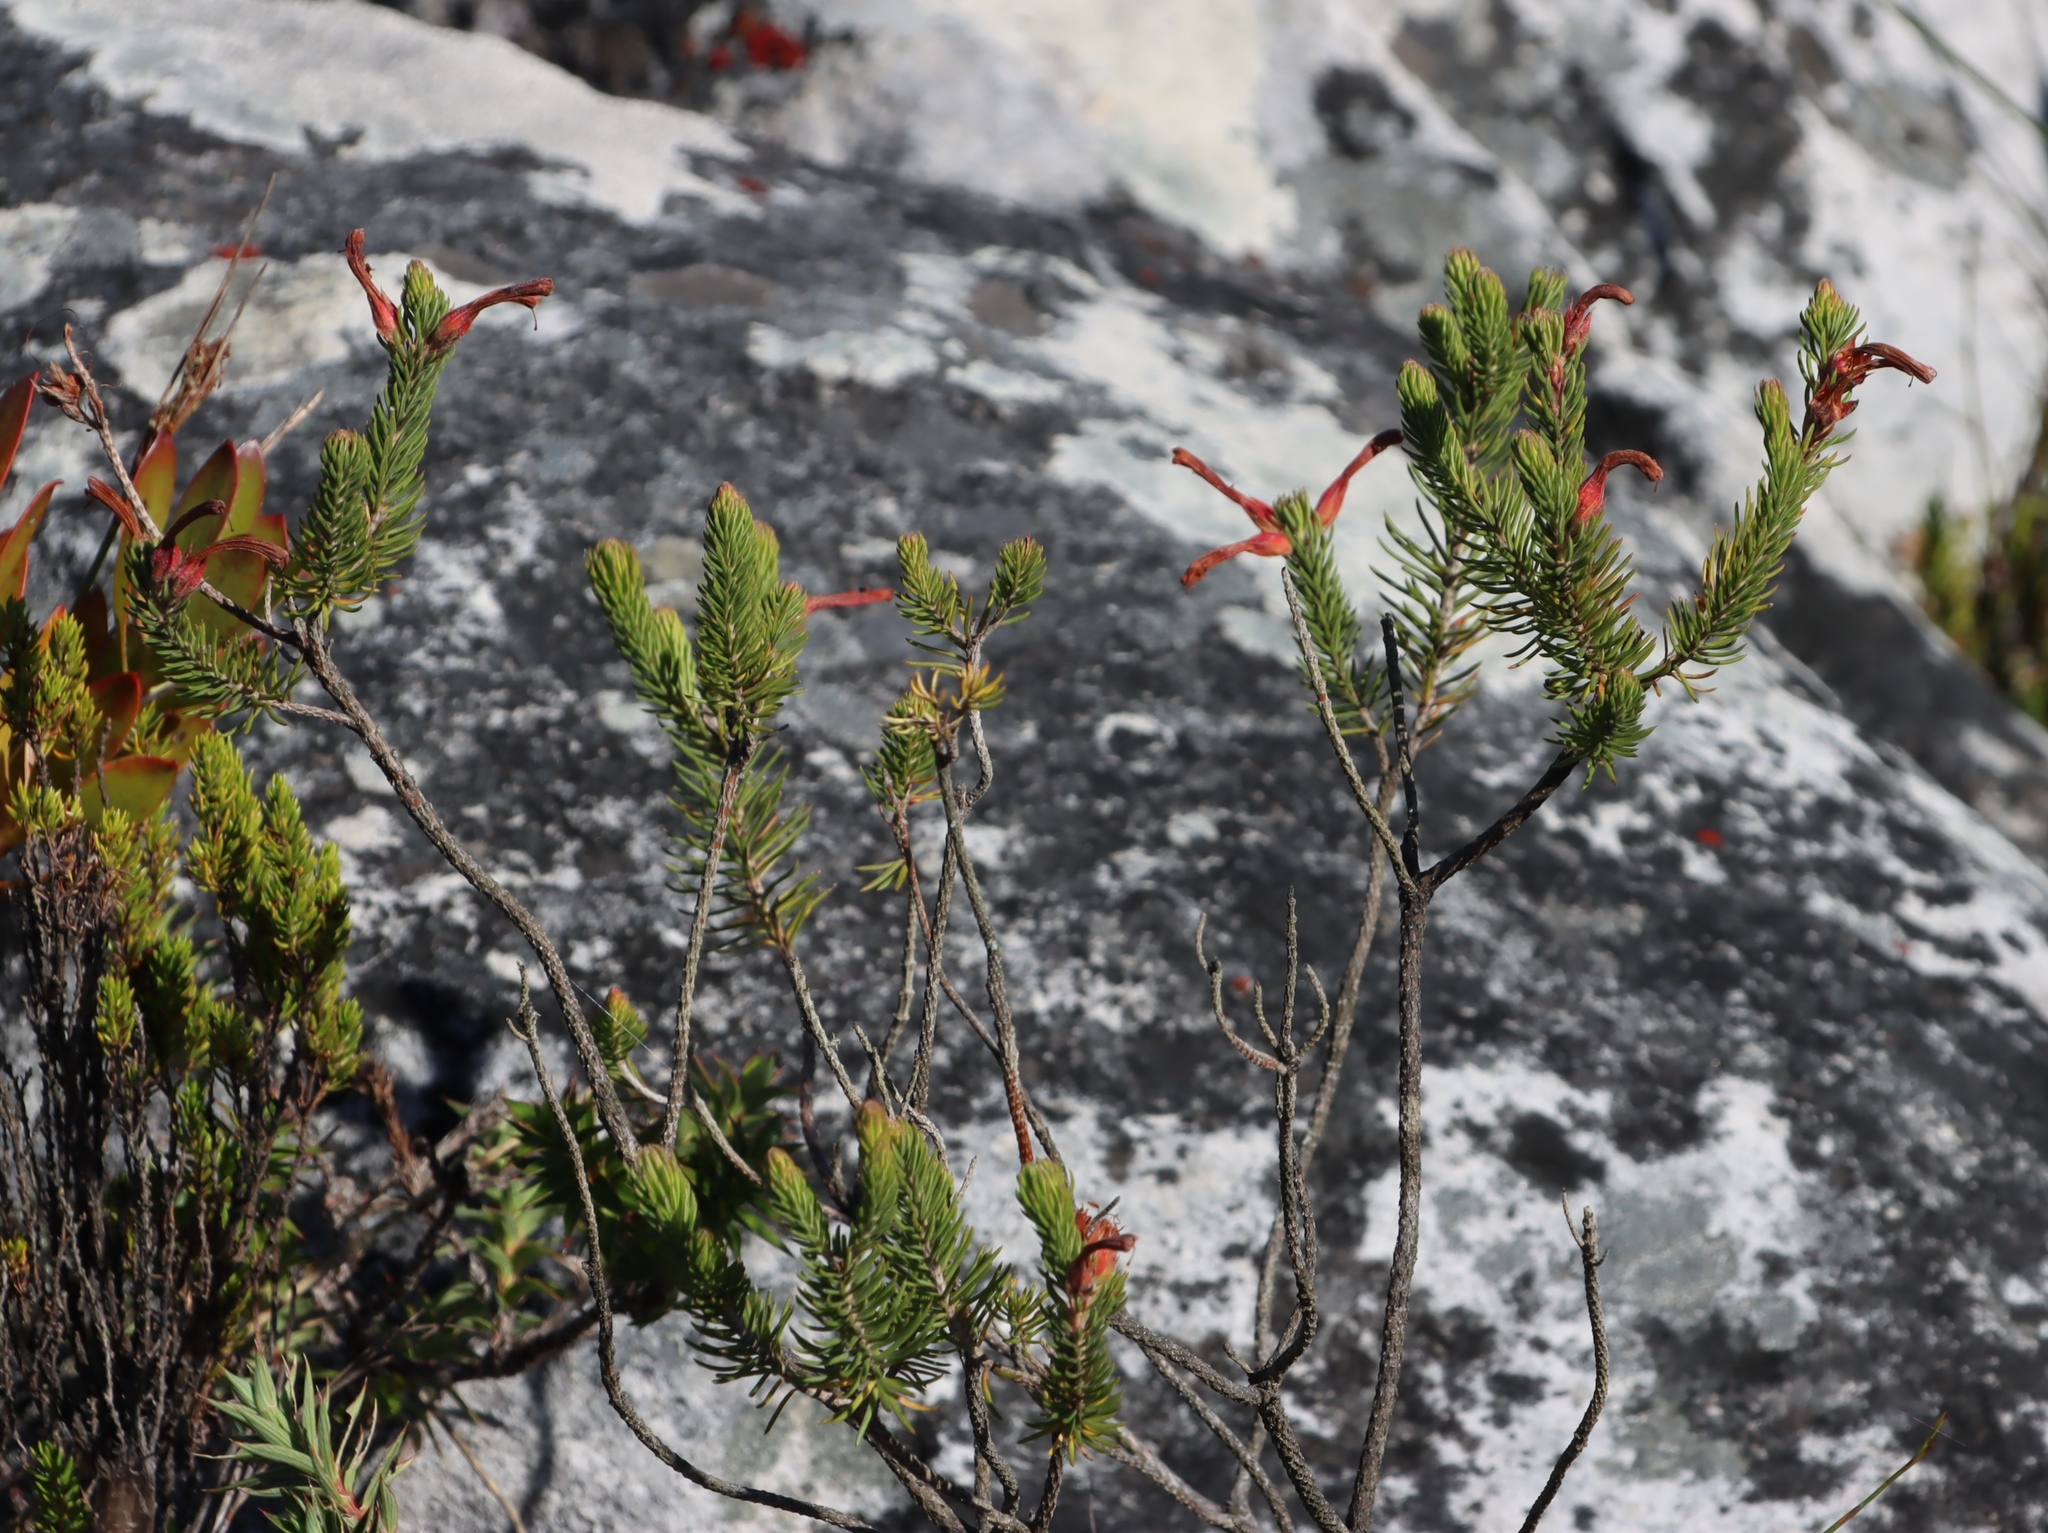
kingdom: Plantae
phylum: Tracheophyta
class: Magnoliopsida
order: Ericales
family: Ericaceae
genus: Erica
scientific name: Erica abietina
